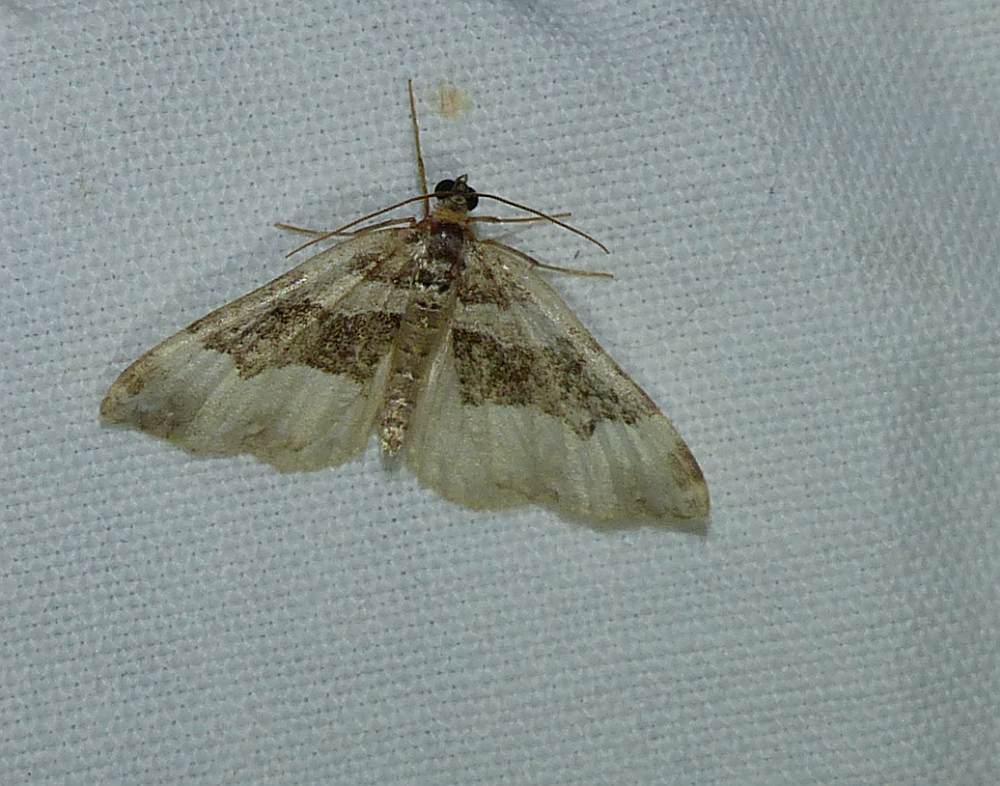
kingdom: Animalia
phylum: Arthropoda
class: Insecta
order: Lepidoptera
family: Geometridae
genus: Euphyia
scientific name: Euphyia intermediata
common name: Sharp-angled carpet
